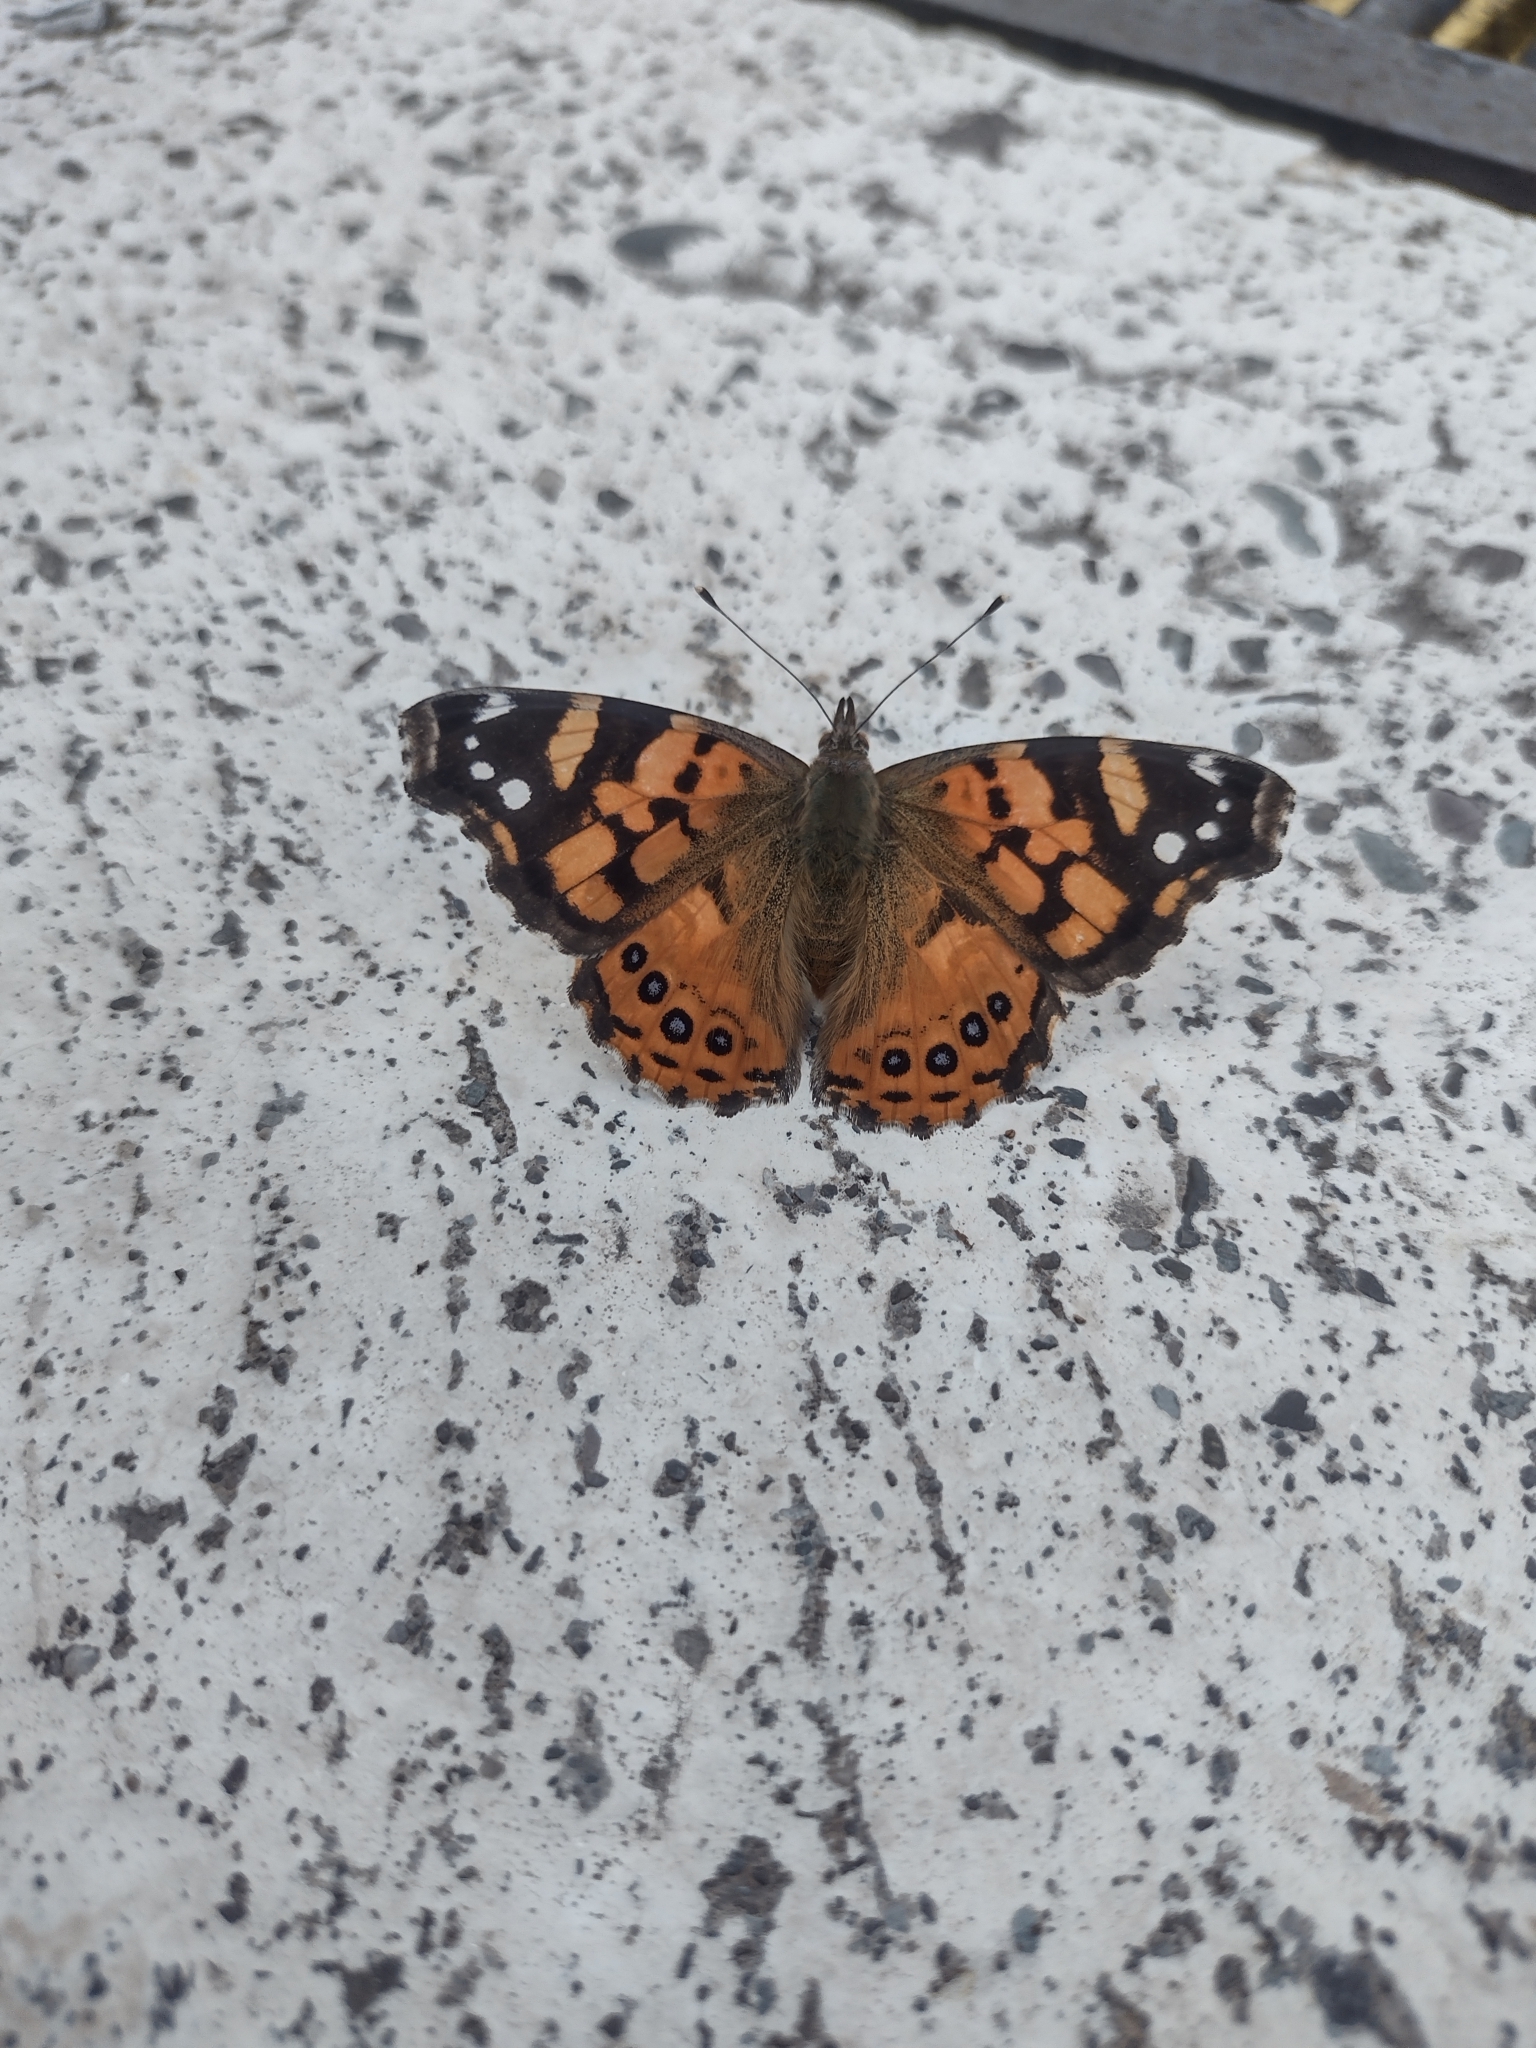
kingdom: Animalia
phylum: Arthropoda
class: Insecta
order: Lepidoptera
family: Nymphalidae
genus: Vanessa
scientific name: Vanessa carye
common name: Subtropical lady
